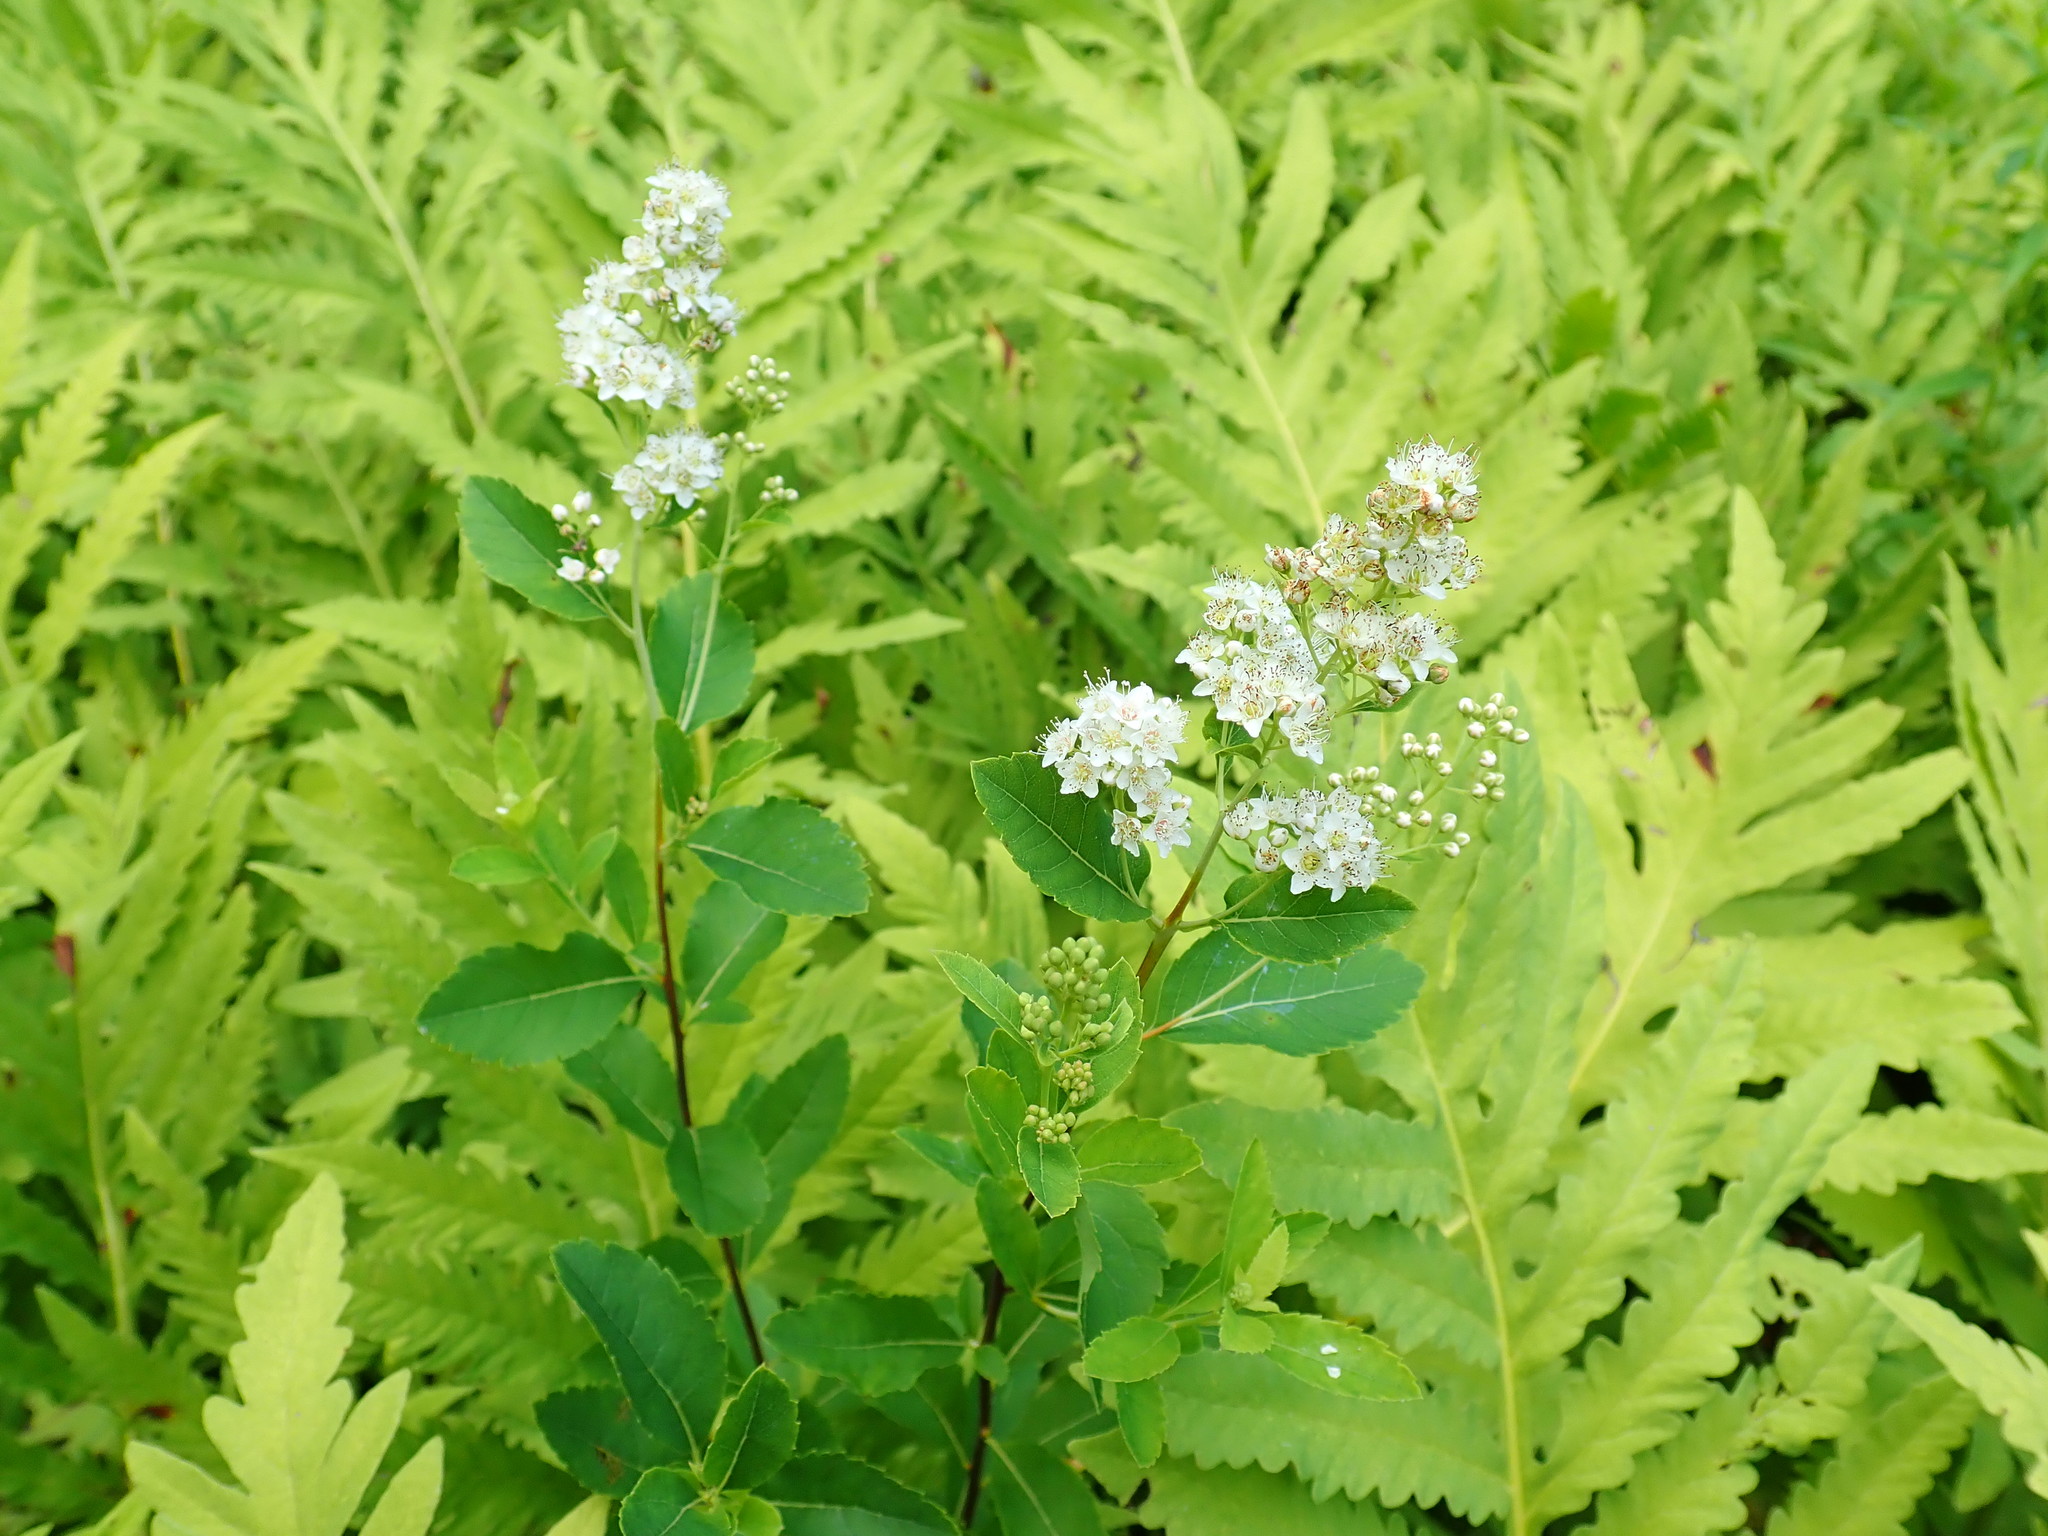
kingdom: Plantae
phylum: Tracheophyta
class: Magnoliopsida
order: Rosales
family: Rosaceae
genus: Spiraea
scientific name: Spiraea alba
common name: Pale bridewort
